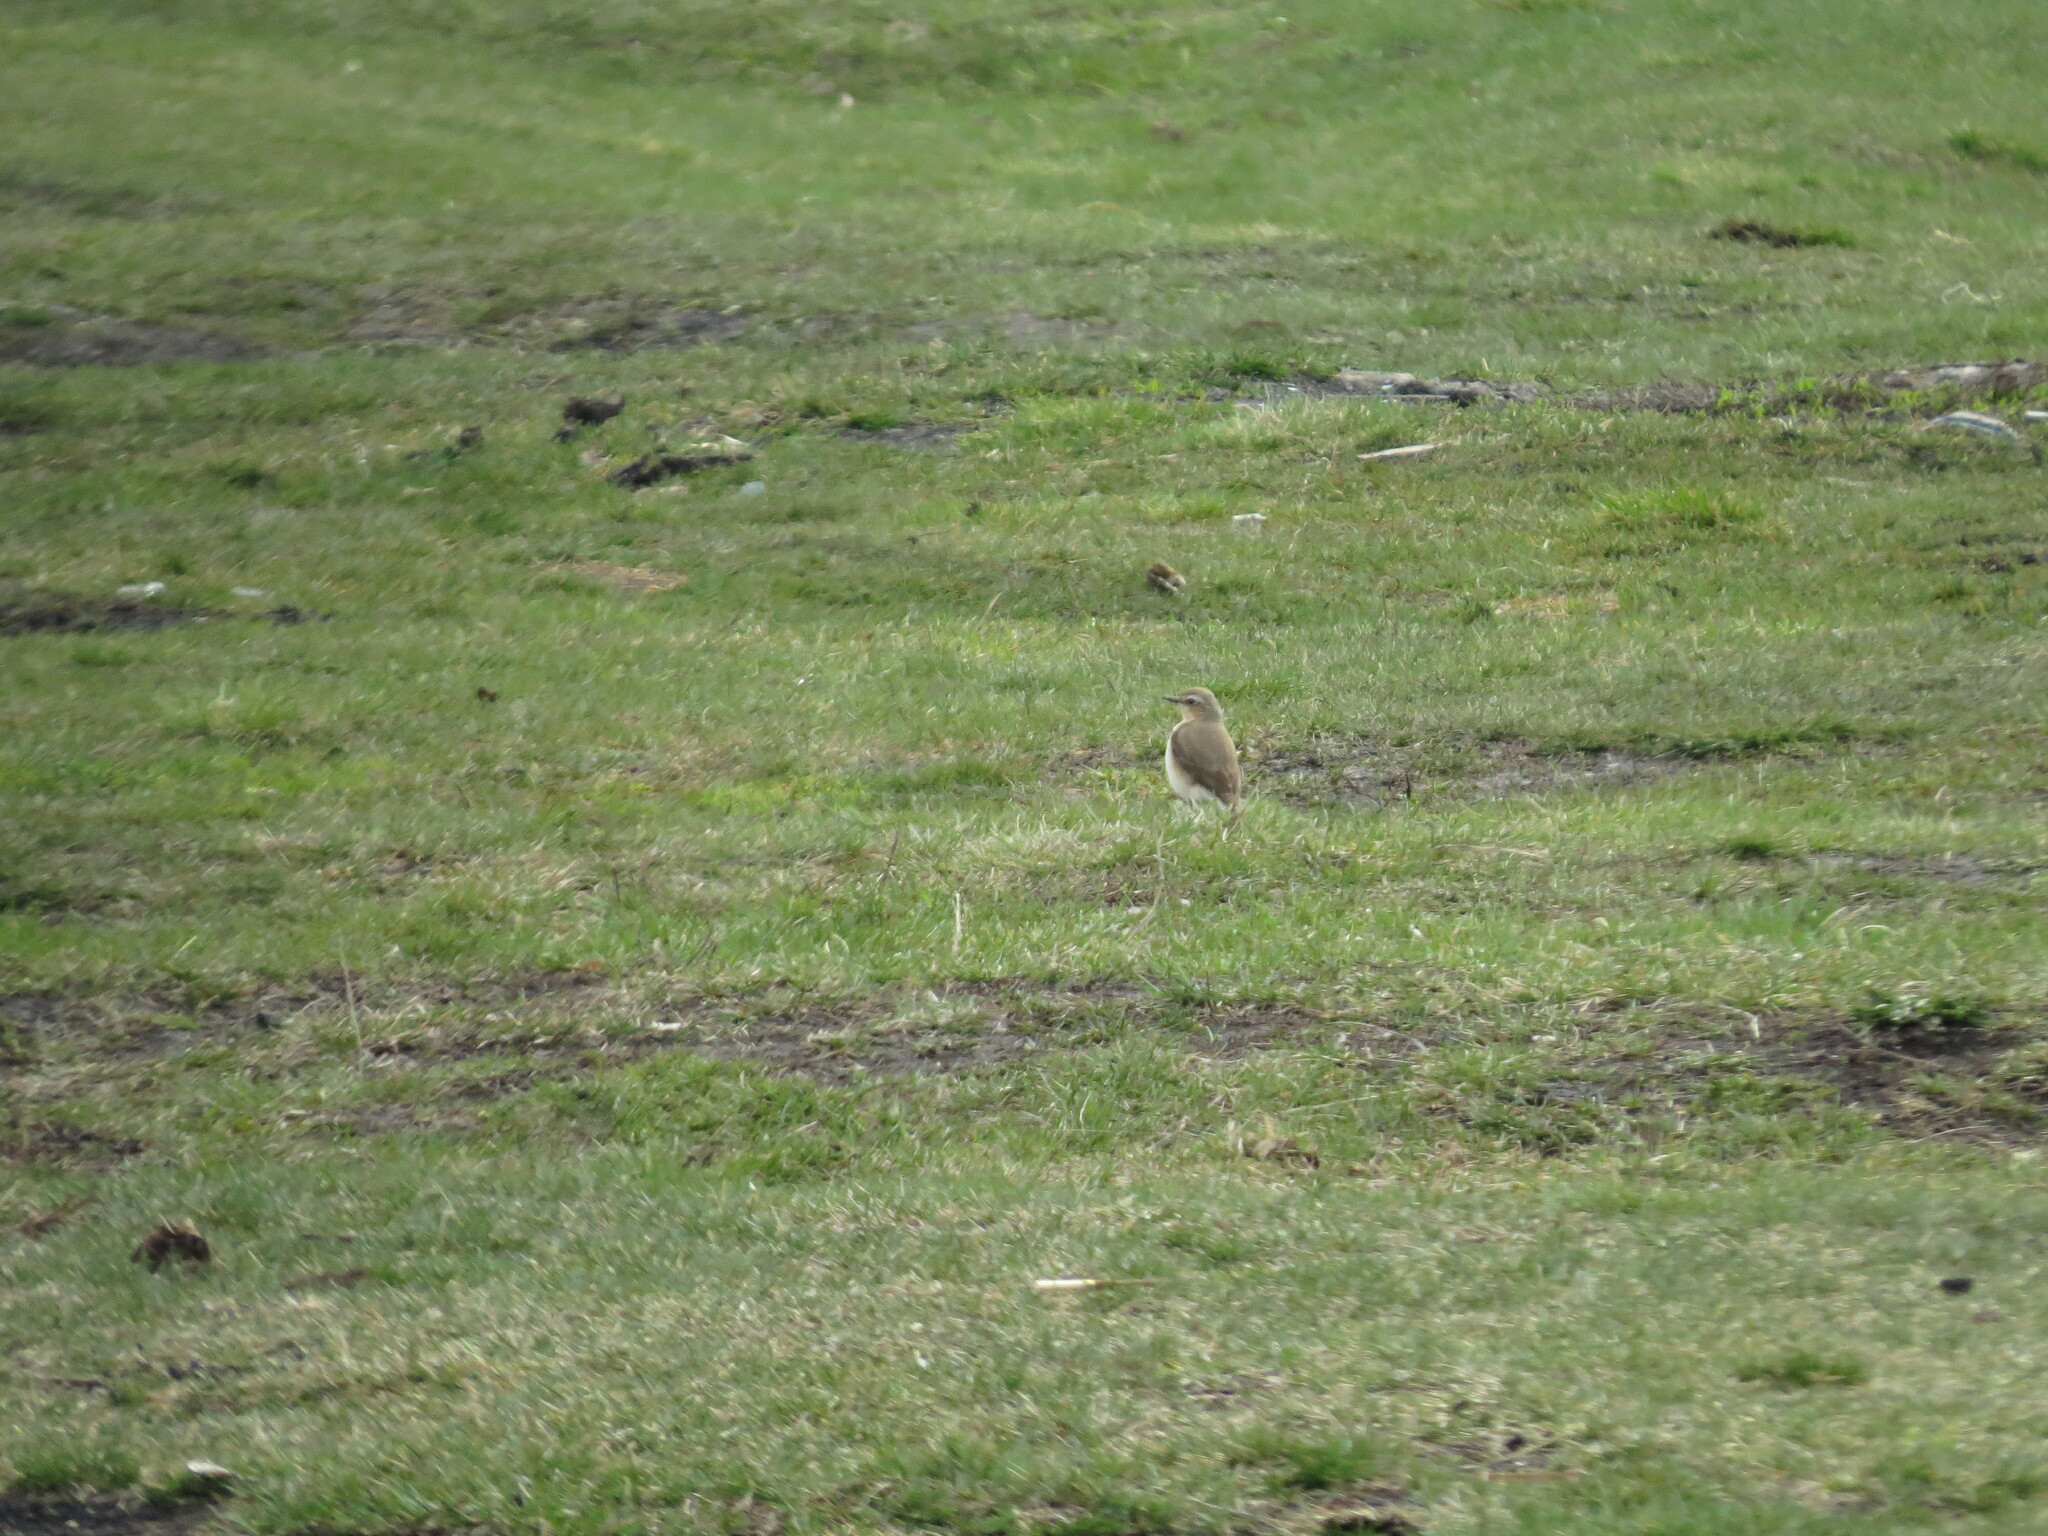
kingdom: Animalia
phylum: Chordata
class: Aves
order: Passeriformes
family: Muscicapidae
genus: Oenanthe
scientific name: Oenanthe oenanthe
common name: Northern wheatear
